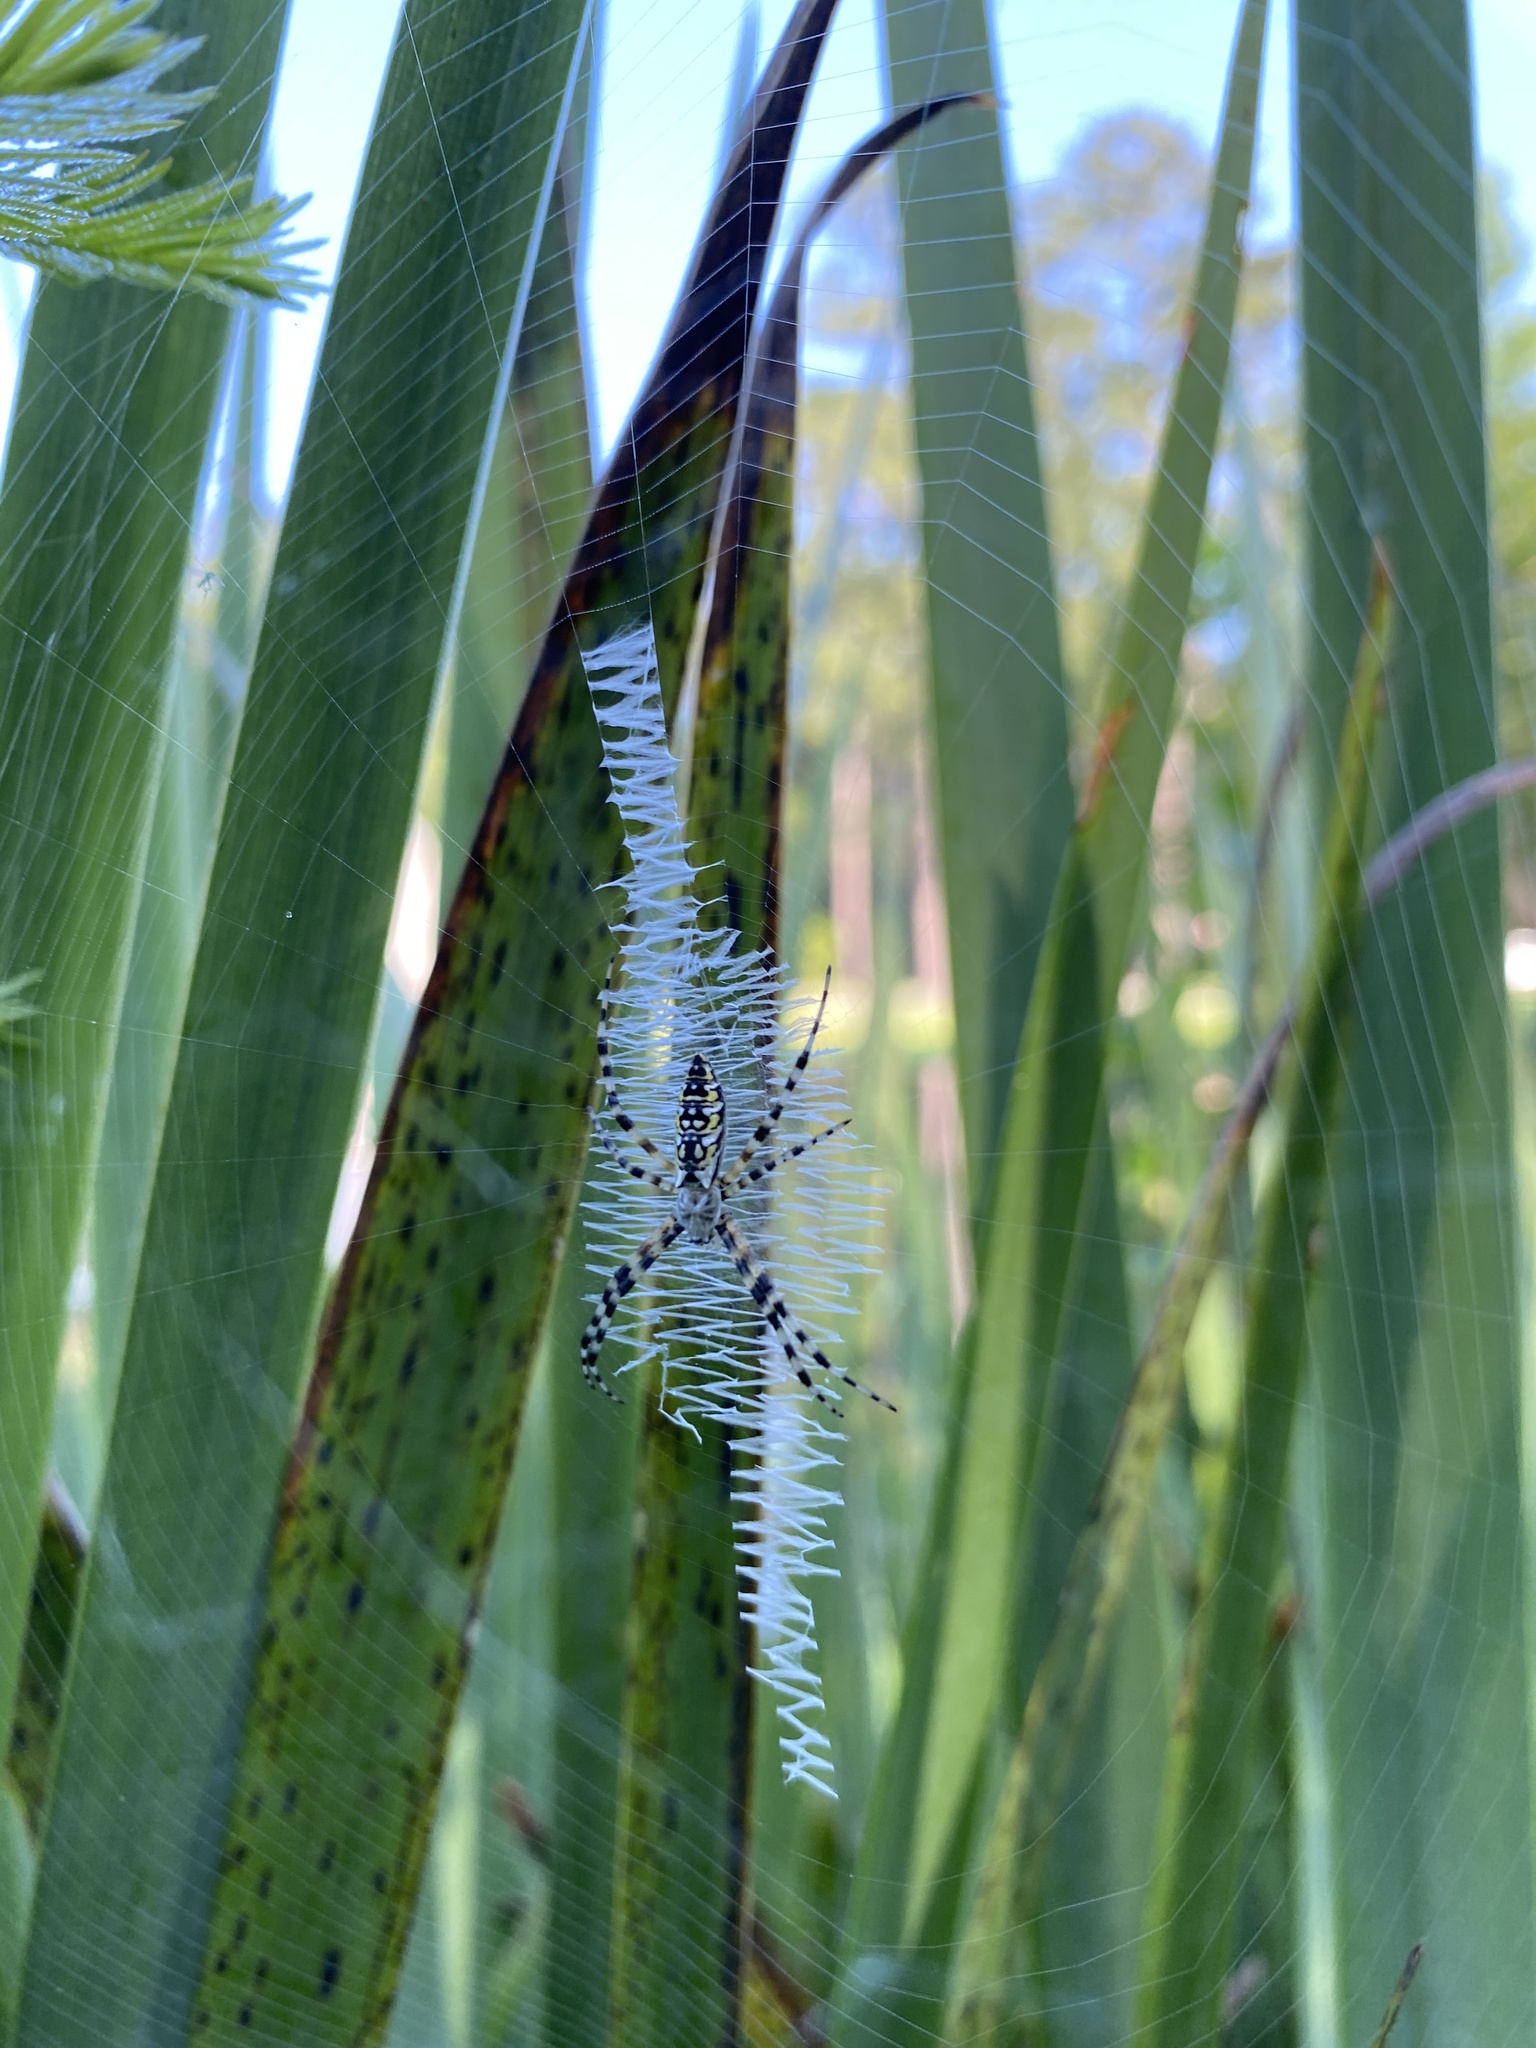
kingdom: Animalia
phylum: Arthropoda
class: Arachnida
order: Araneae
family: Araneidae
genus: Argiope
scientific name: Argiope aurantia
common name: Orb weavers
